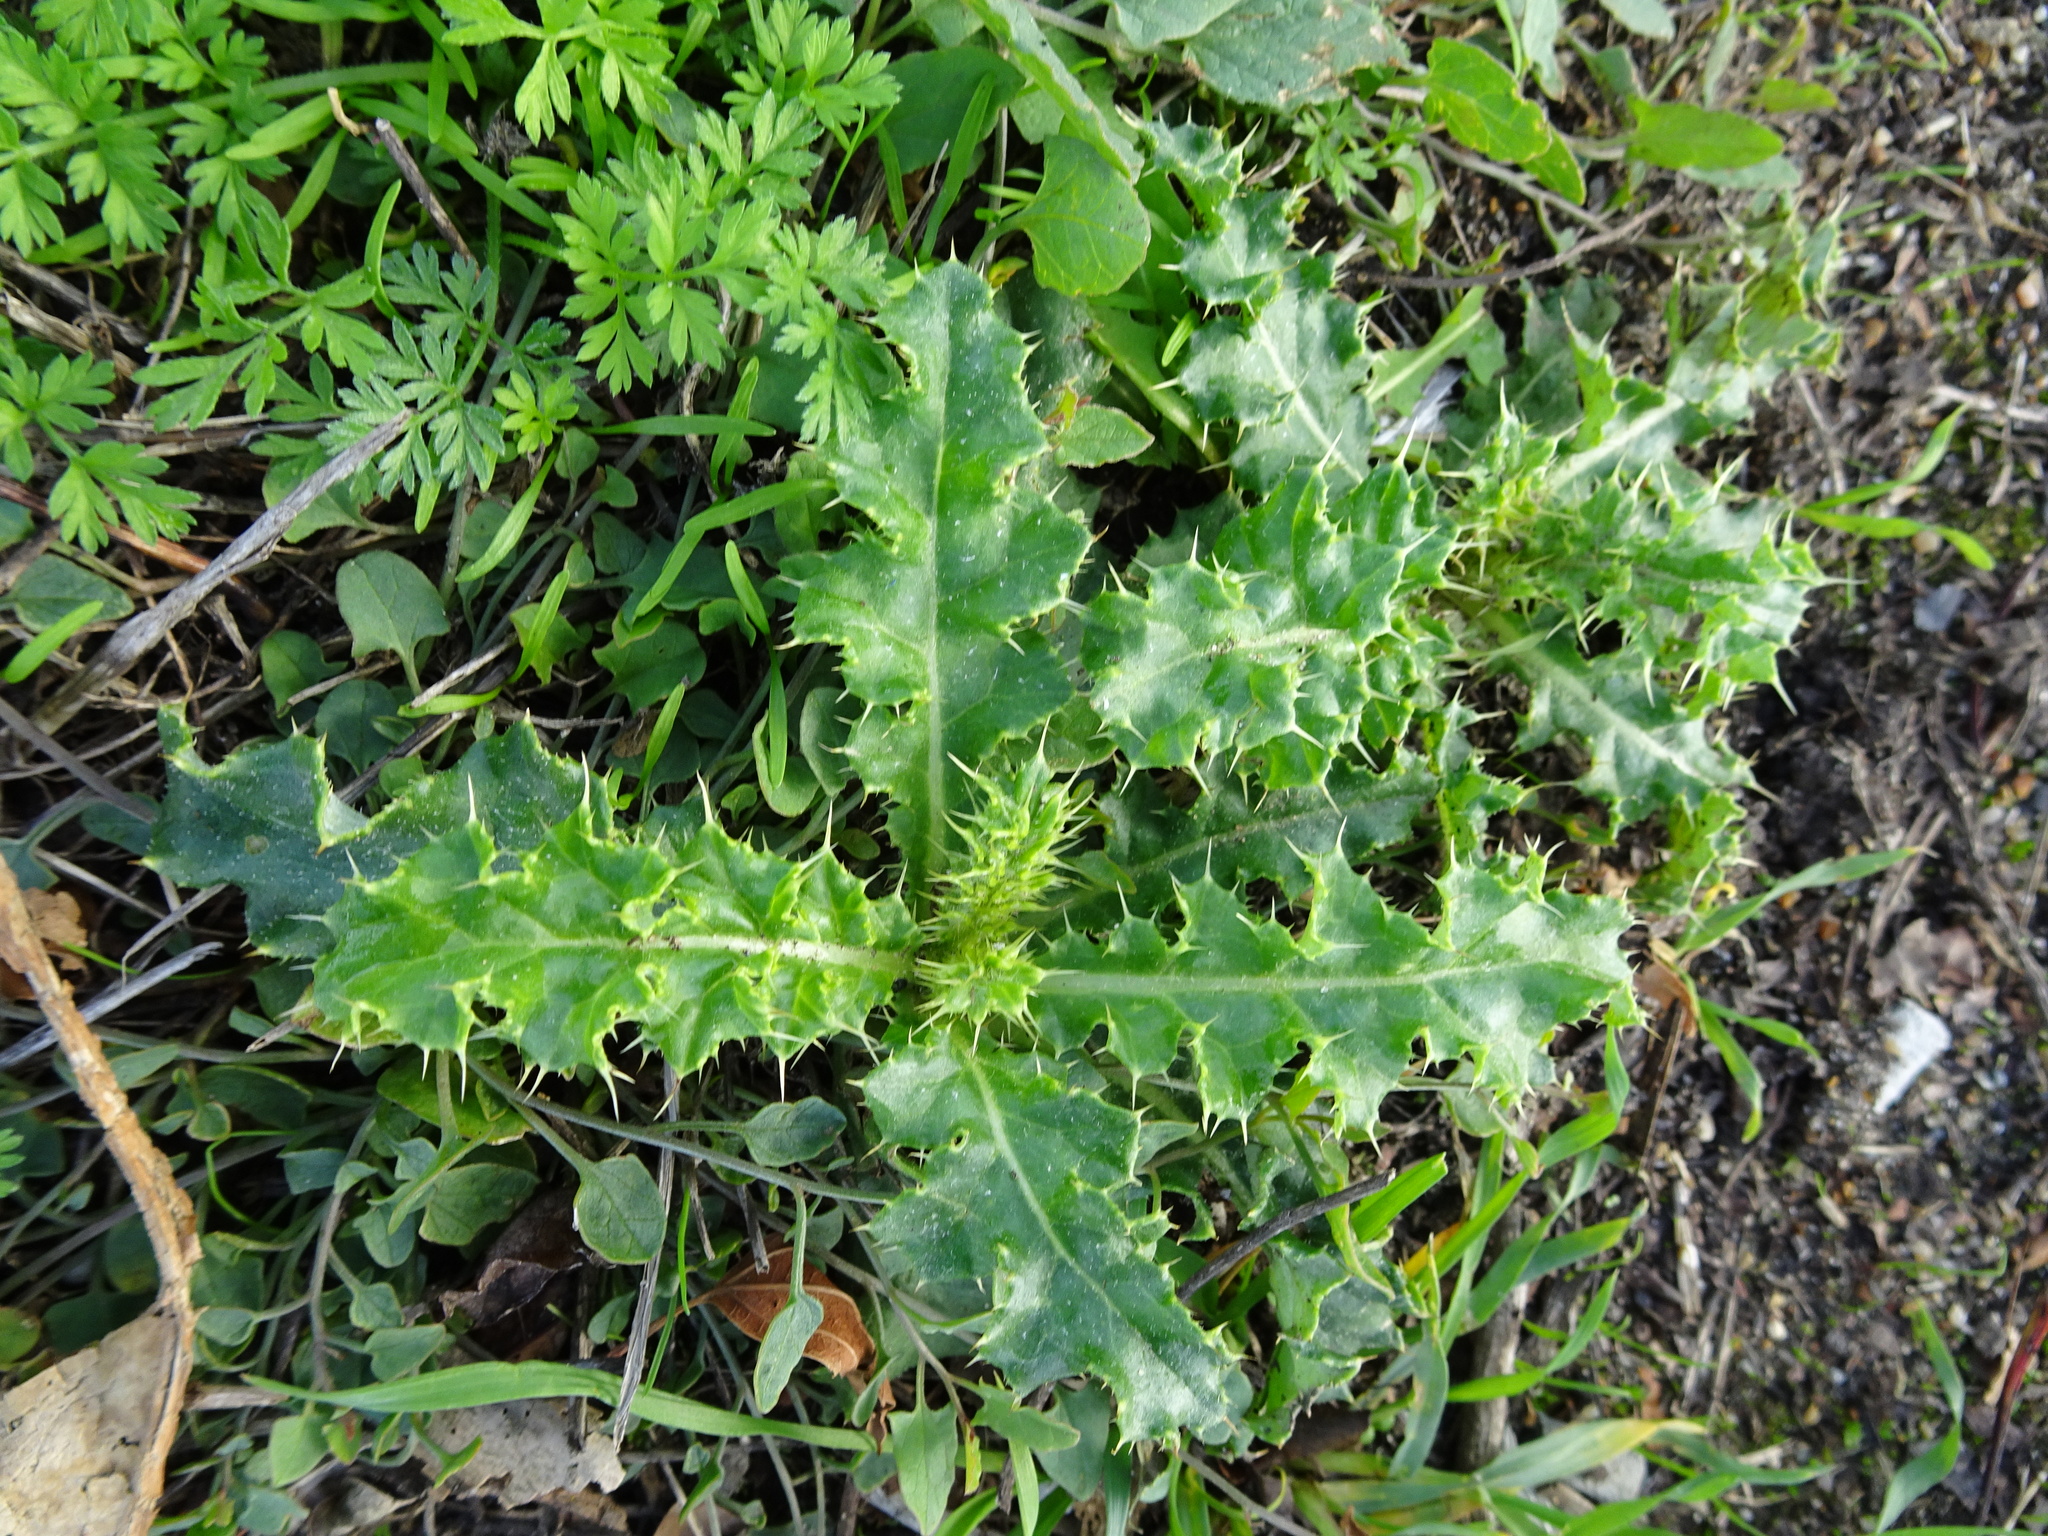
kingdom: Plantae
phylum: Tracheophyta
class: Magnoliopsida
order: Asterales
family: Asteraceae
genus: Cirsium
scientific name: Cirsium arvense
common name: Creeping thistle
